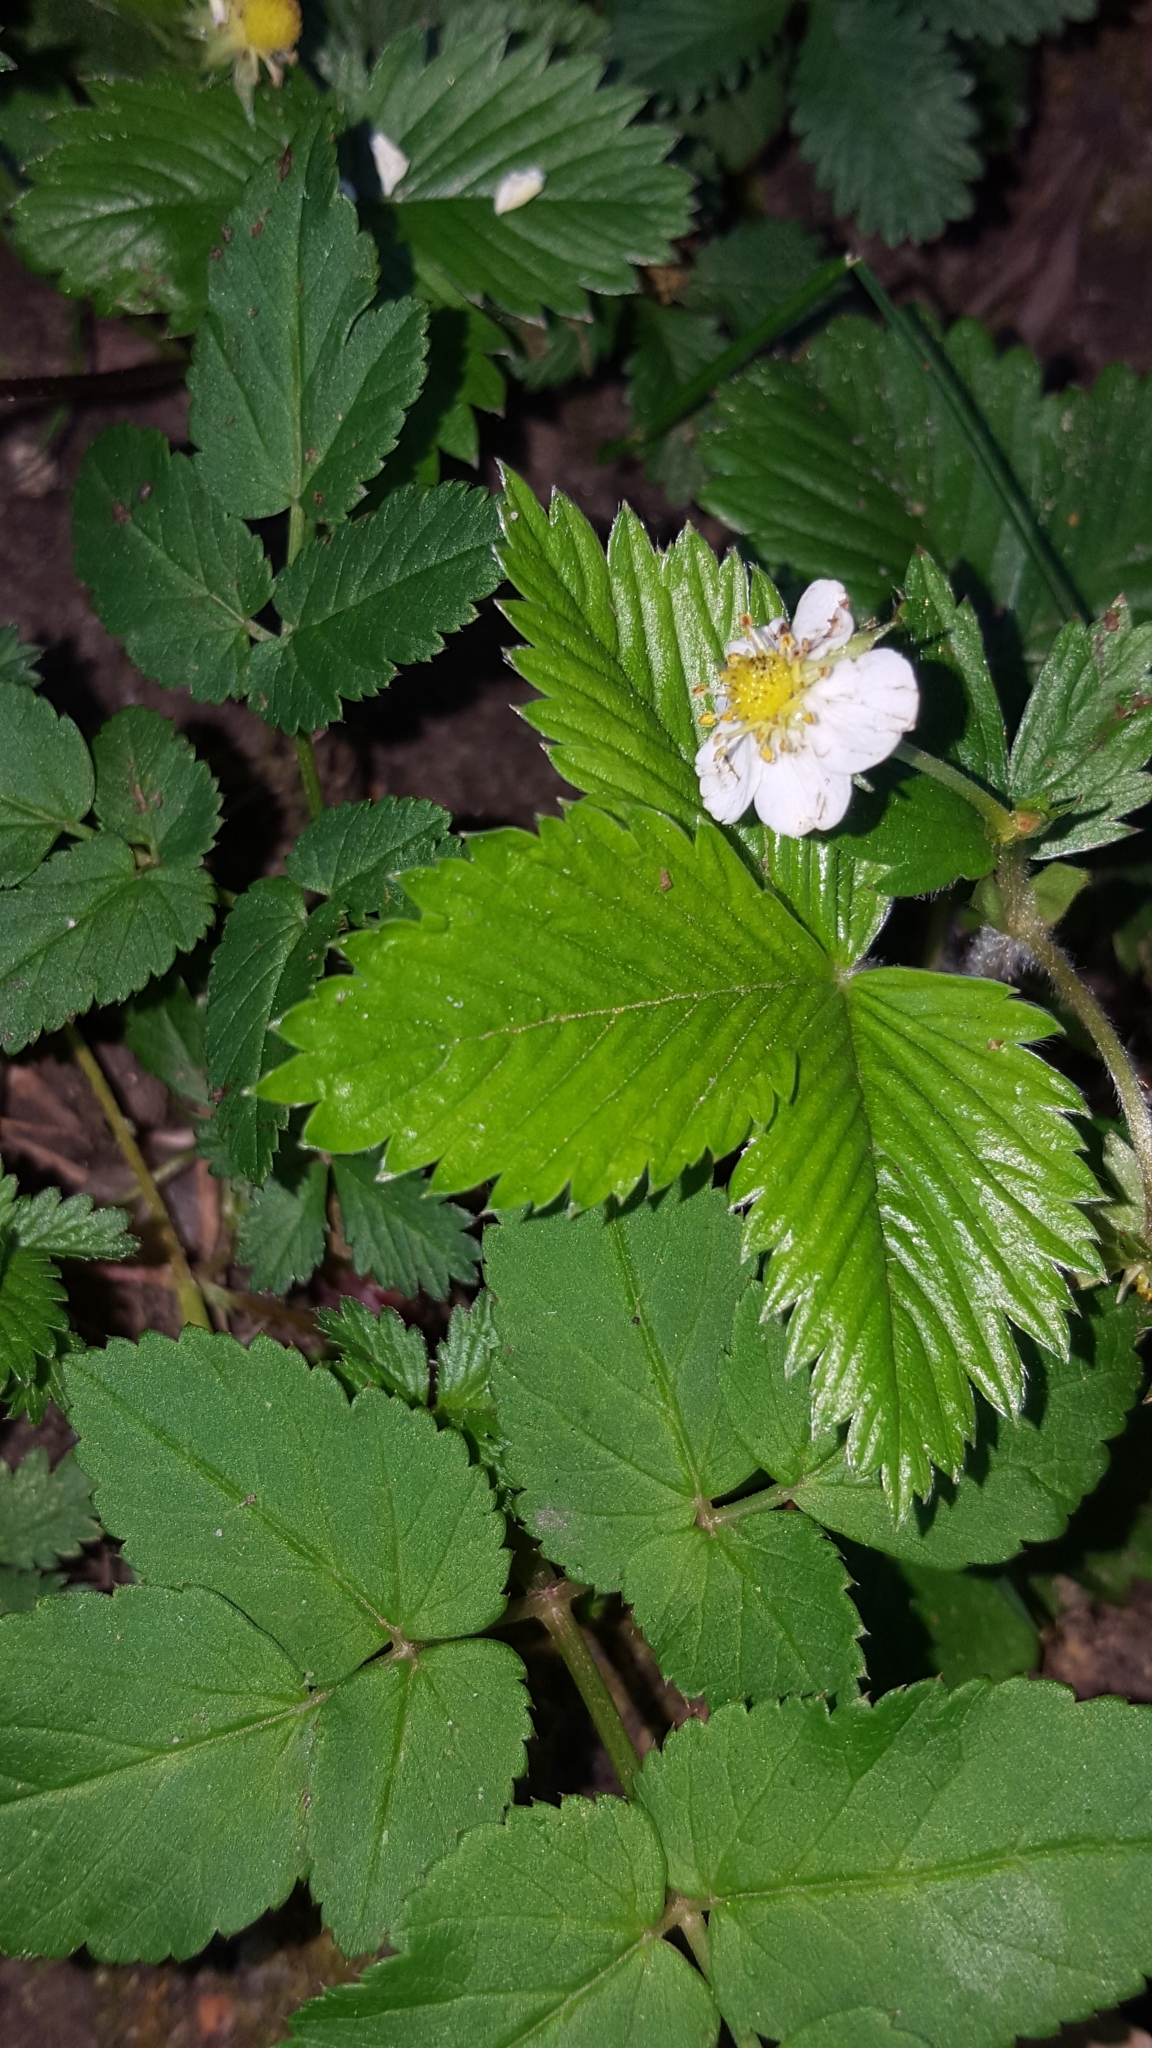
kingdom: Plantae
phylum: Tracheophyta
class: Magnoliopsida
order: Apiales
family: Apiaceae
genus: Aegopodium
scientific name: Aegopodium podagraria
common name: Ground-elder
